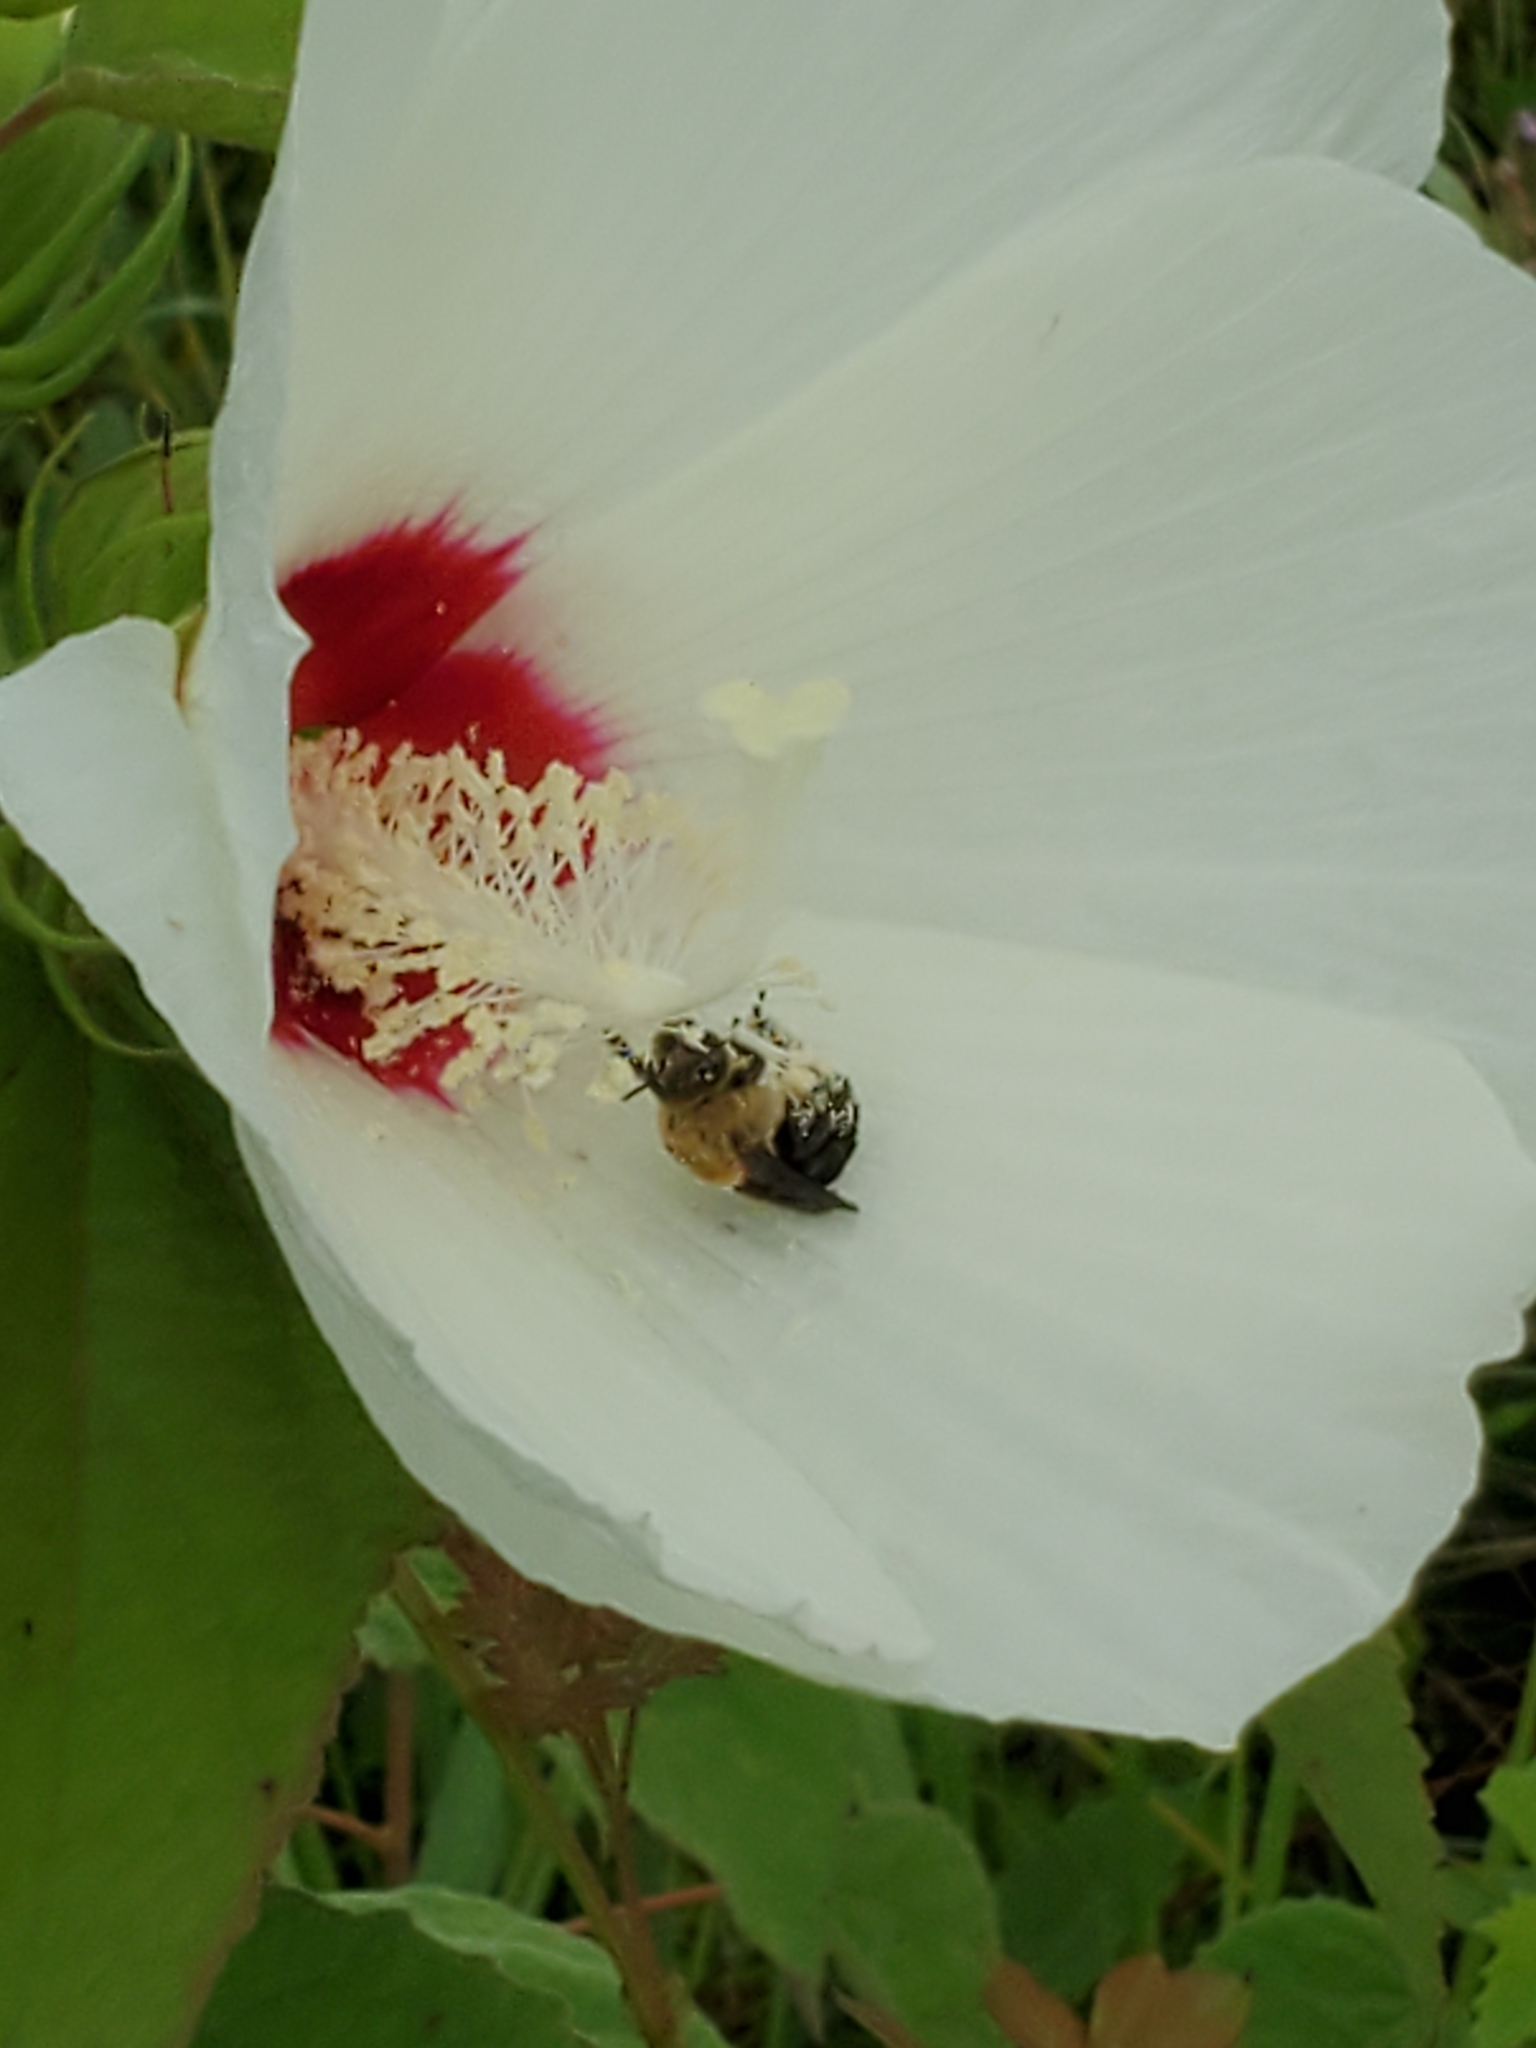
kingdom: Animalia
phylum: Arthropoda
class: Insecta
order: Hymenoptera
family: Apidae
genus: Ptilothrix
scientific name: Ptilothrix bombiformis
